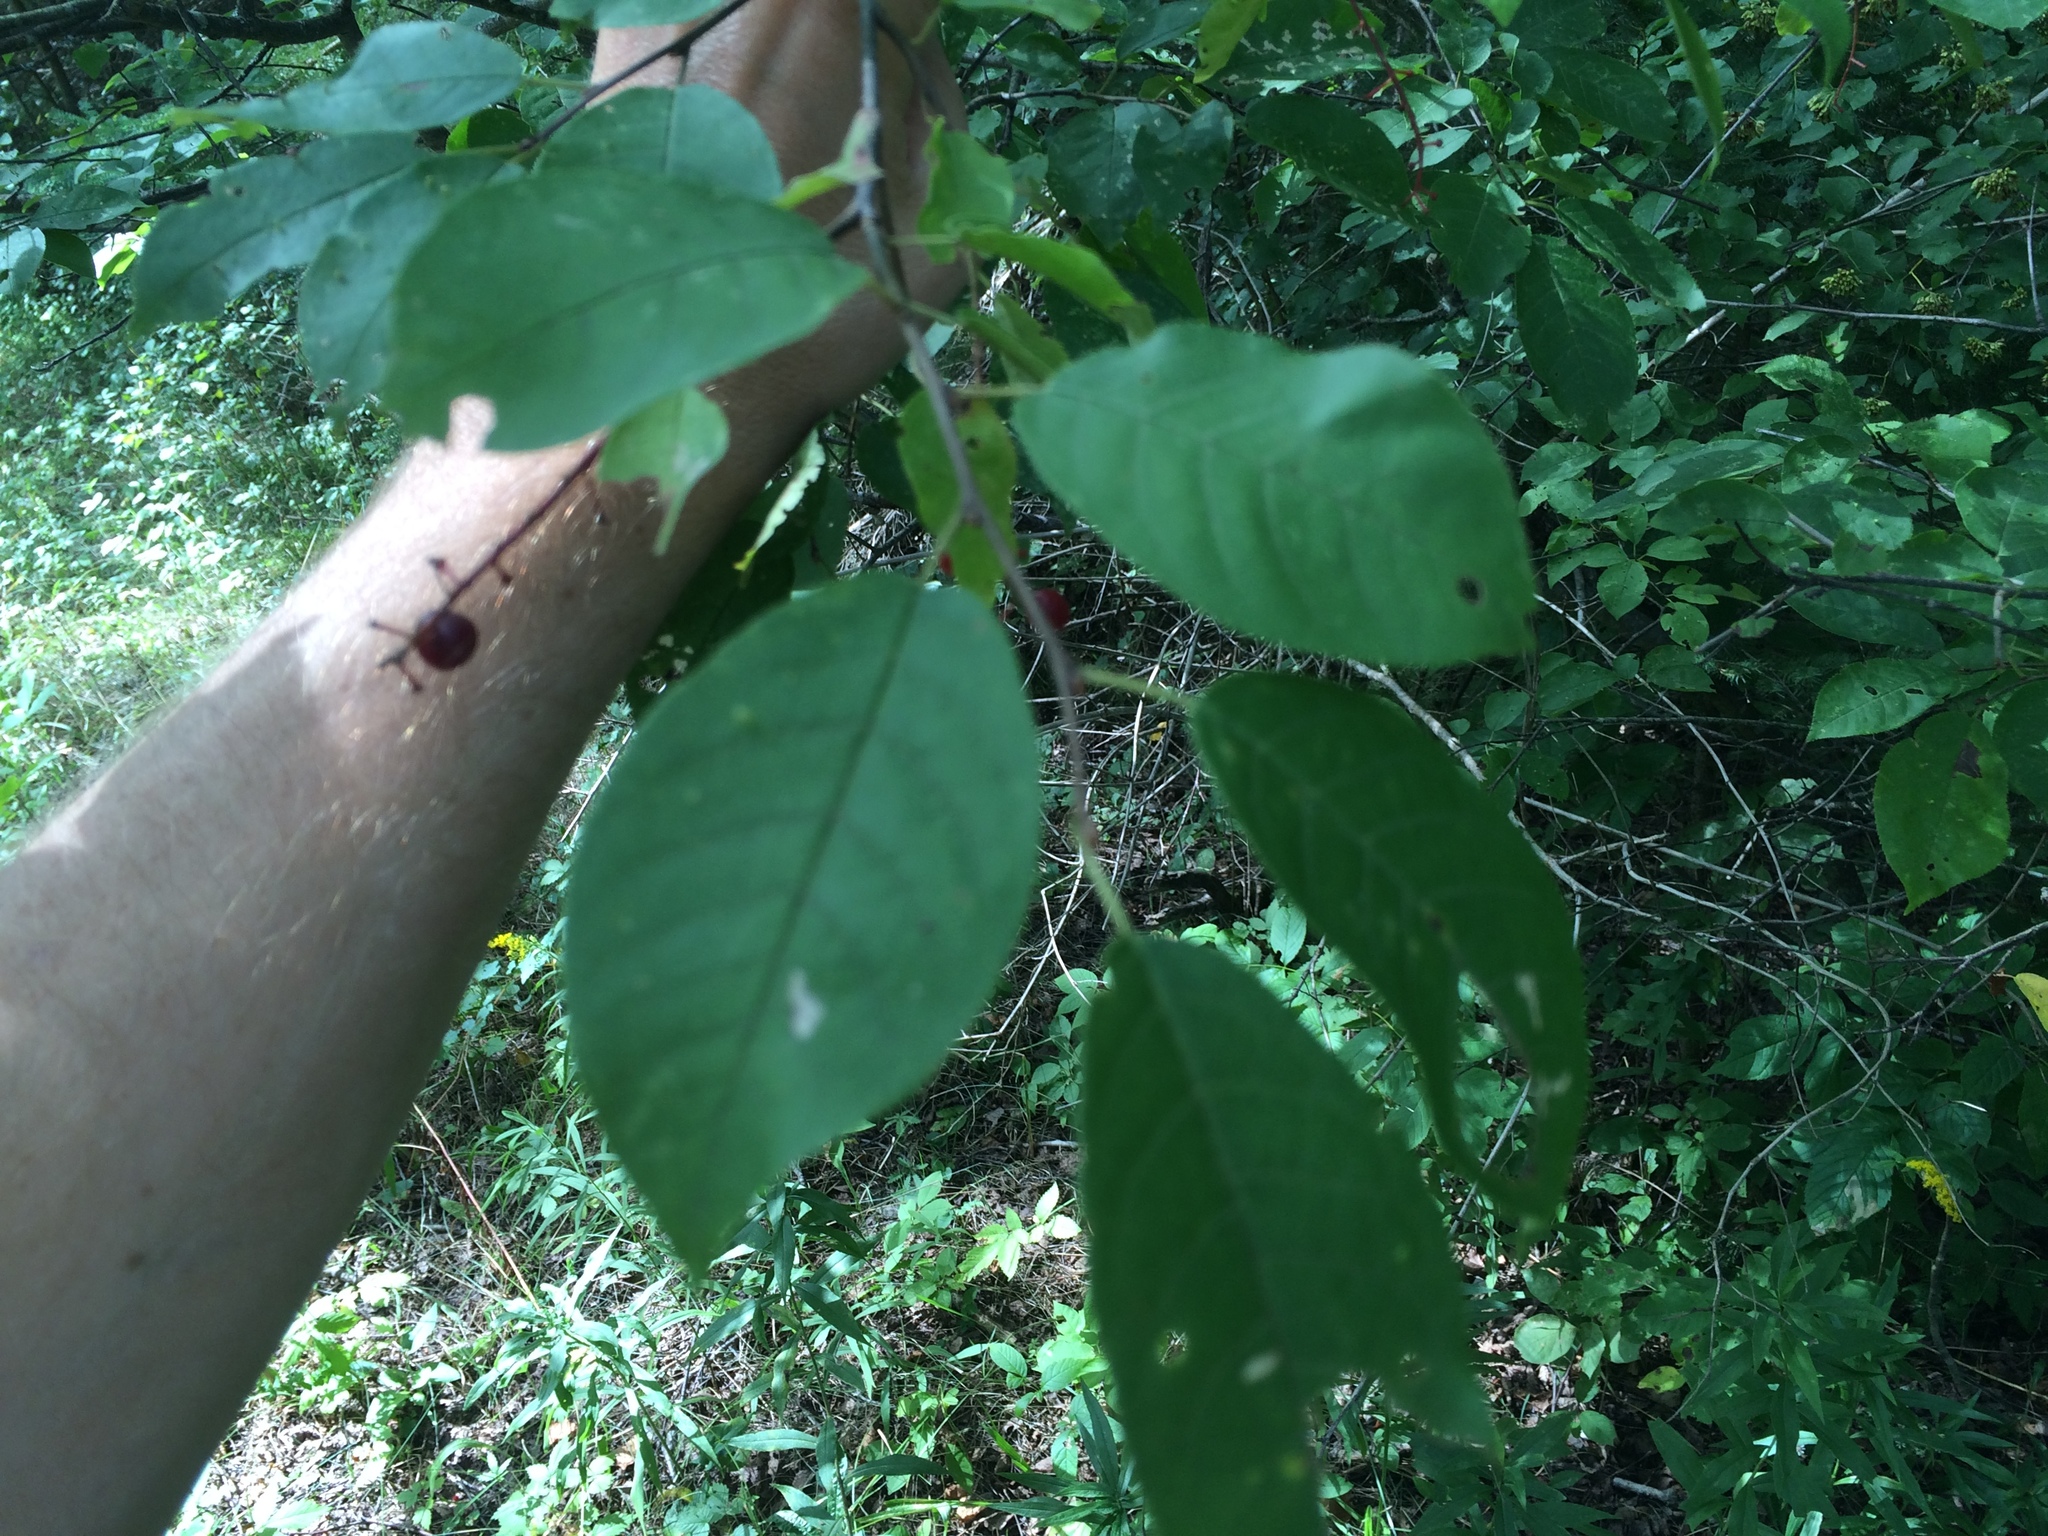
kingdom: Plantae
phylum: Tracheophyta
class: Magnoliopsida
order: Rosales
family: Rosaceae
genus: Prunus
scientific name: Prunus virginiana
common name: Chokecherry
